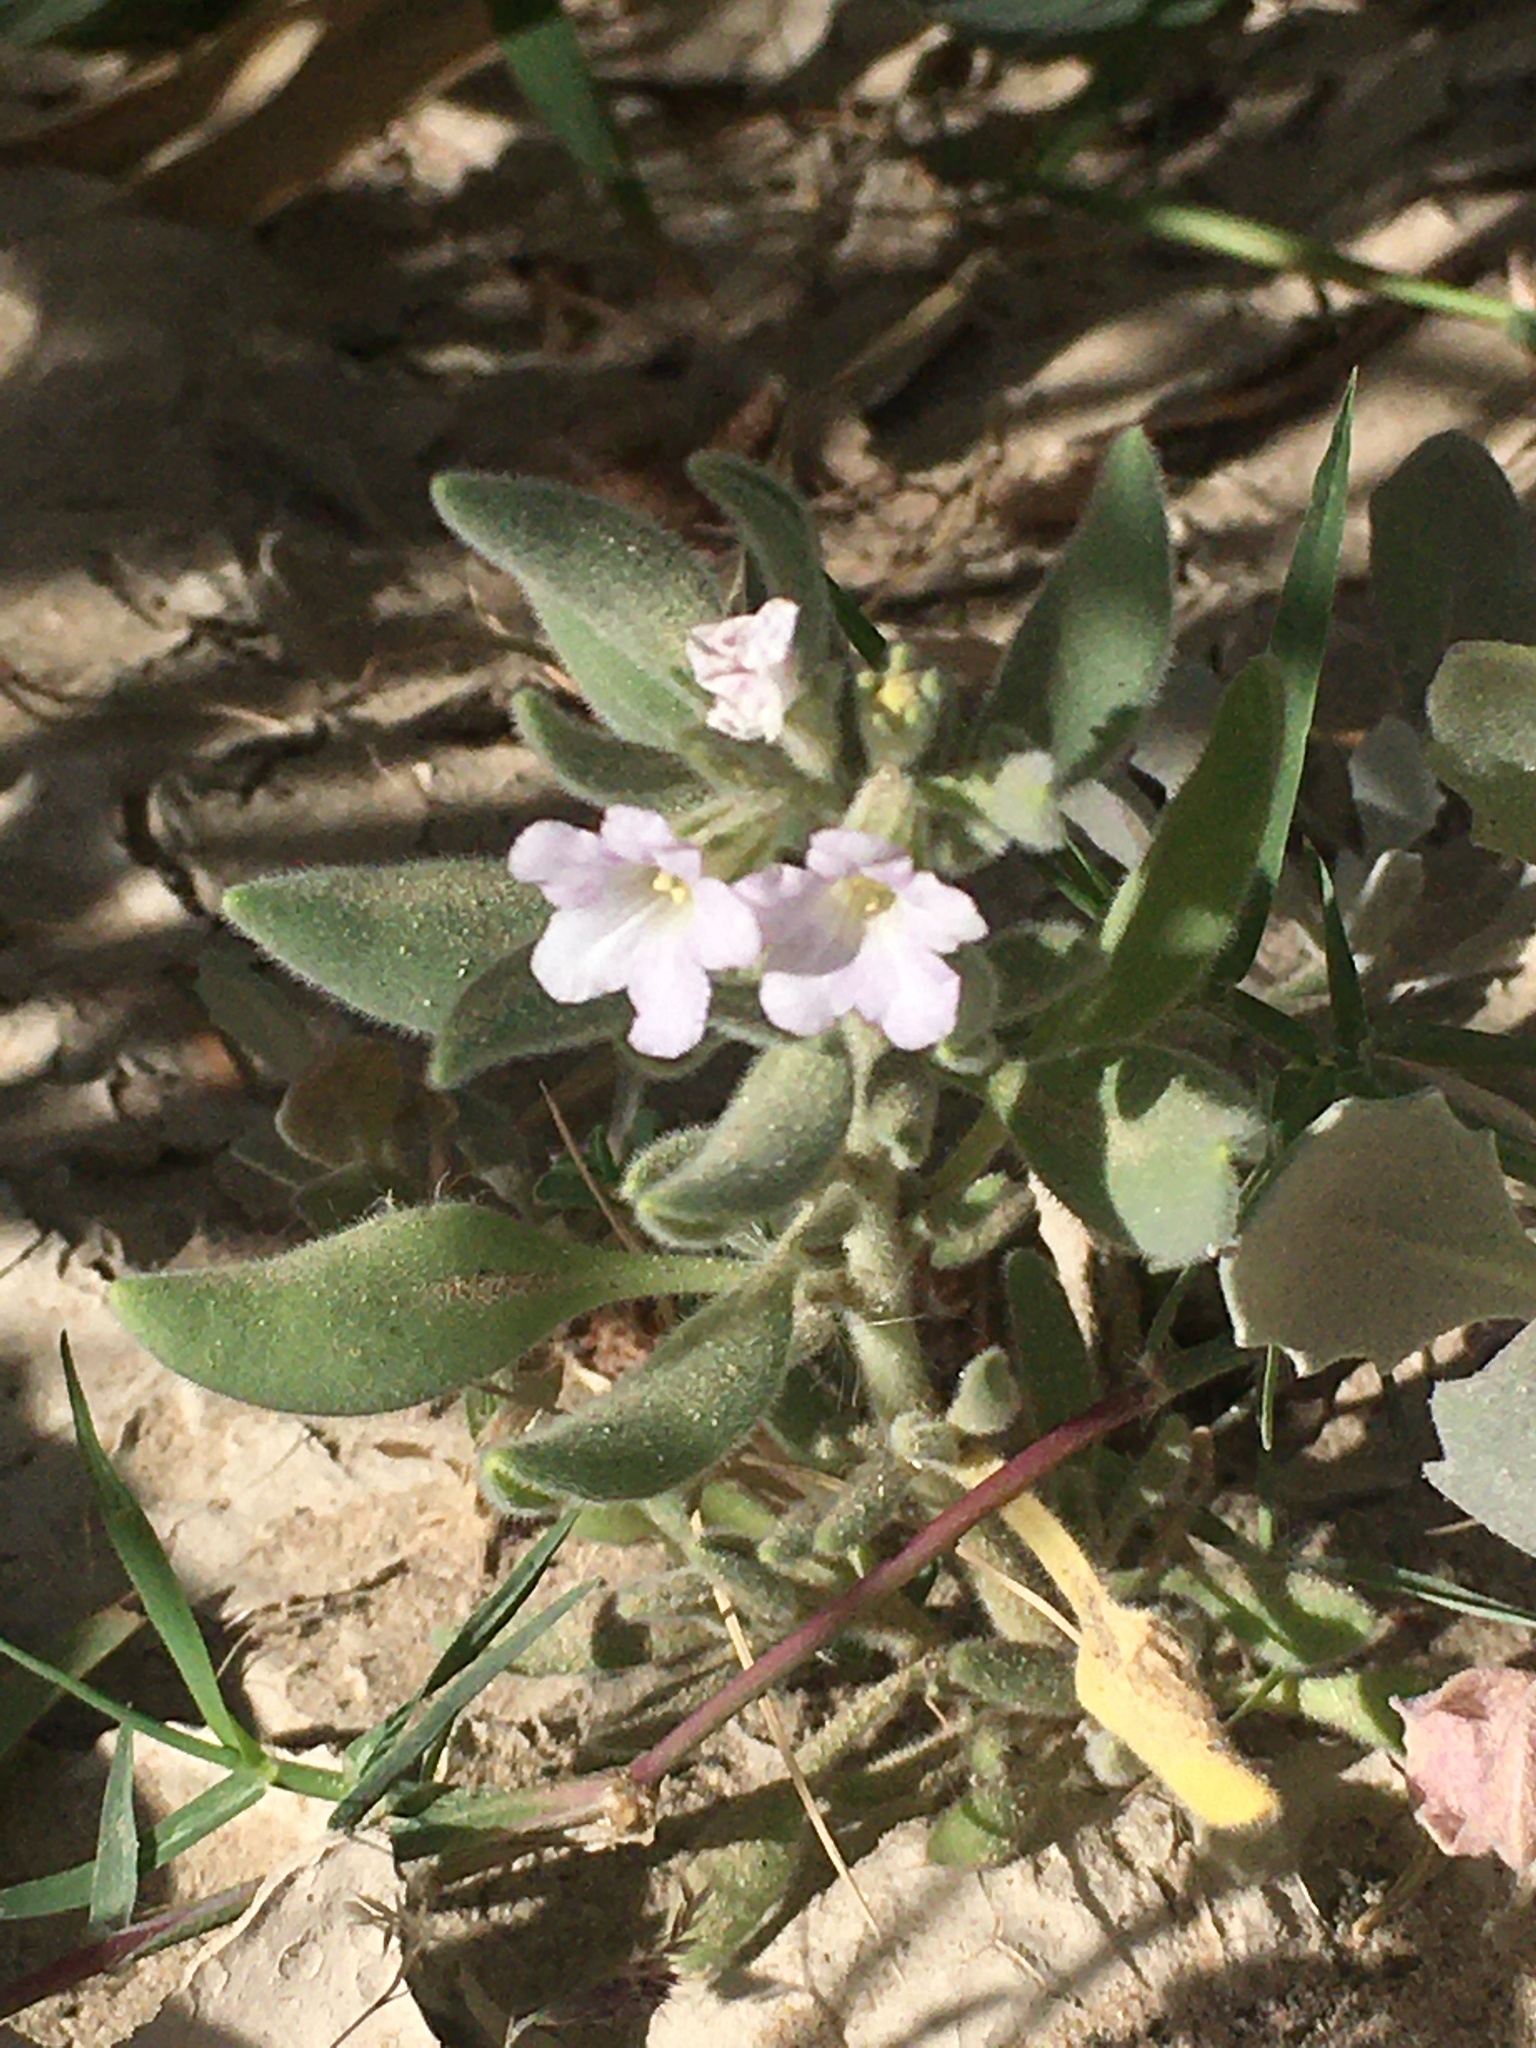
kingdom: Plantae
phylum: Tracheophyta
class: Magnoliopsida
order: Boraginales
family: Ehretiaceae
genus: Tiquilia
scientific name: Tiquilia canescens
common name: Hairy tiquilia
